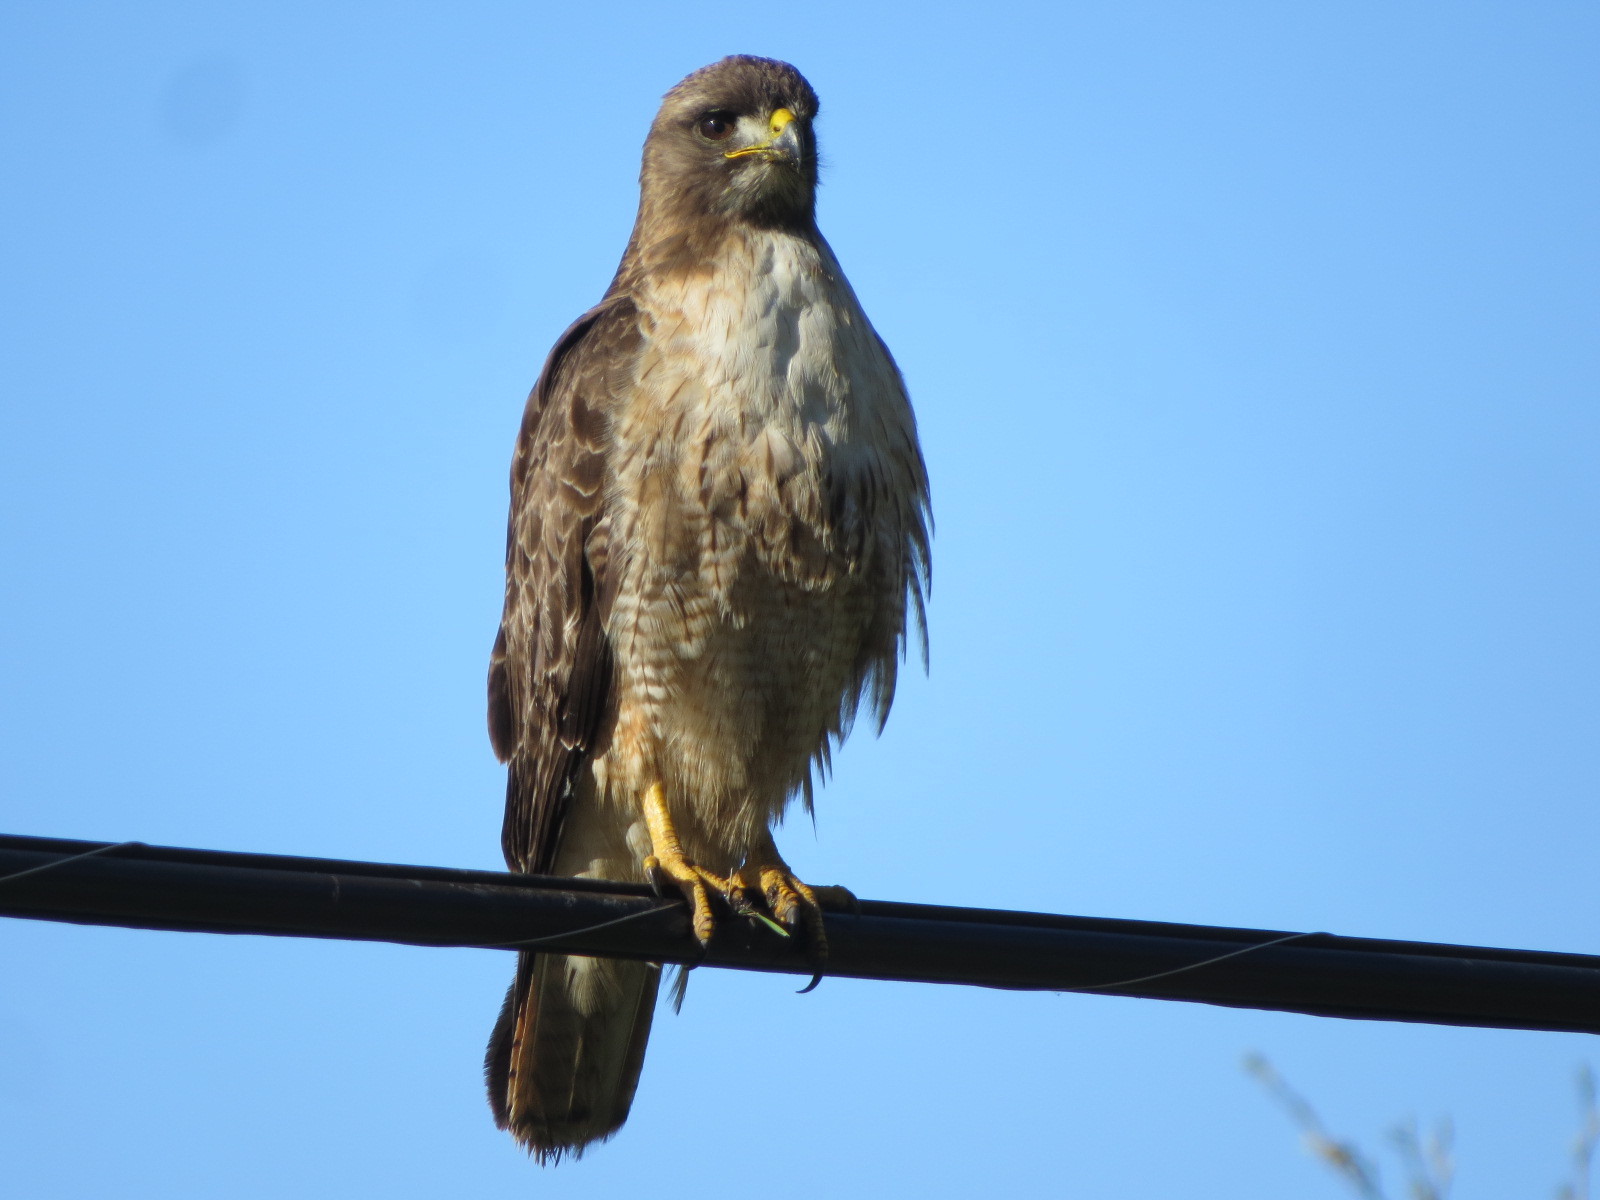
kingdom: Animalia
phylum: Chordata
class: Aves
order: Accipitriformes
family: Accipitridae
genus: Buteo
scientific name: Buteo jamaicensis
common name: Red-tailed hawk
